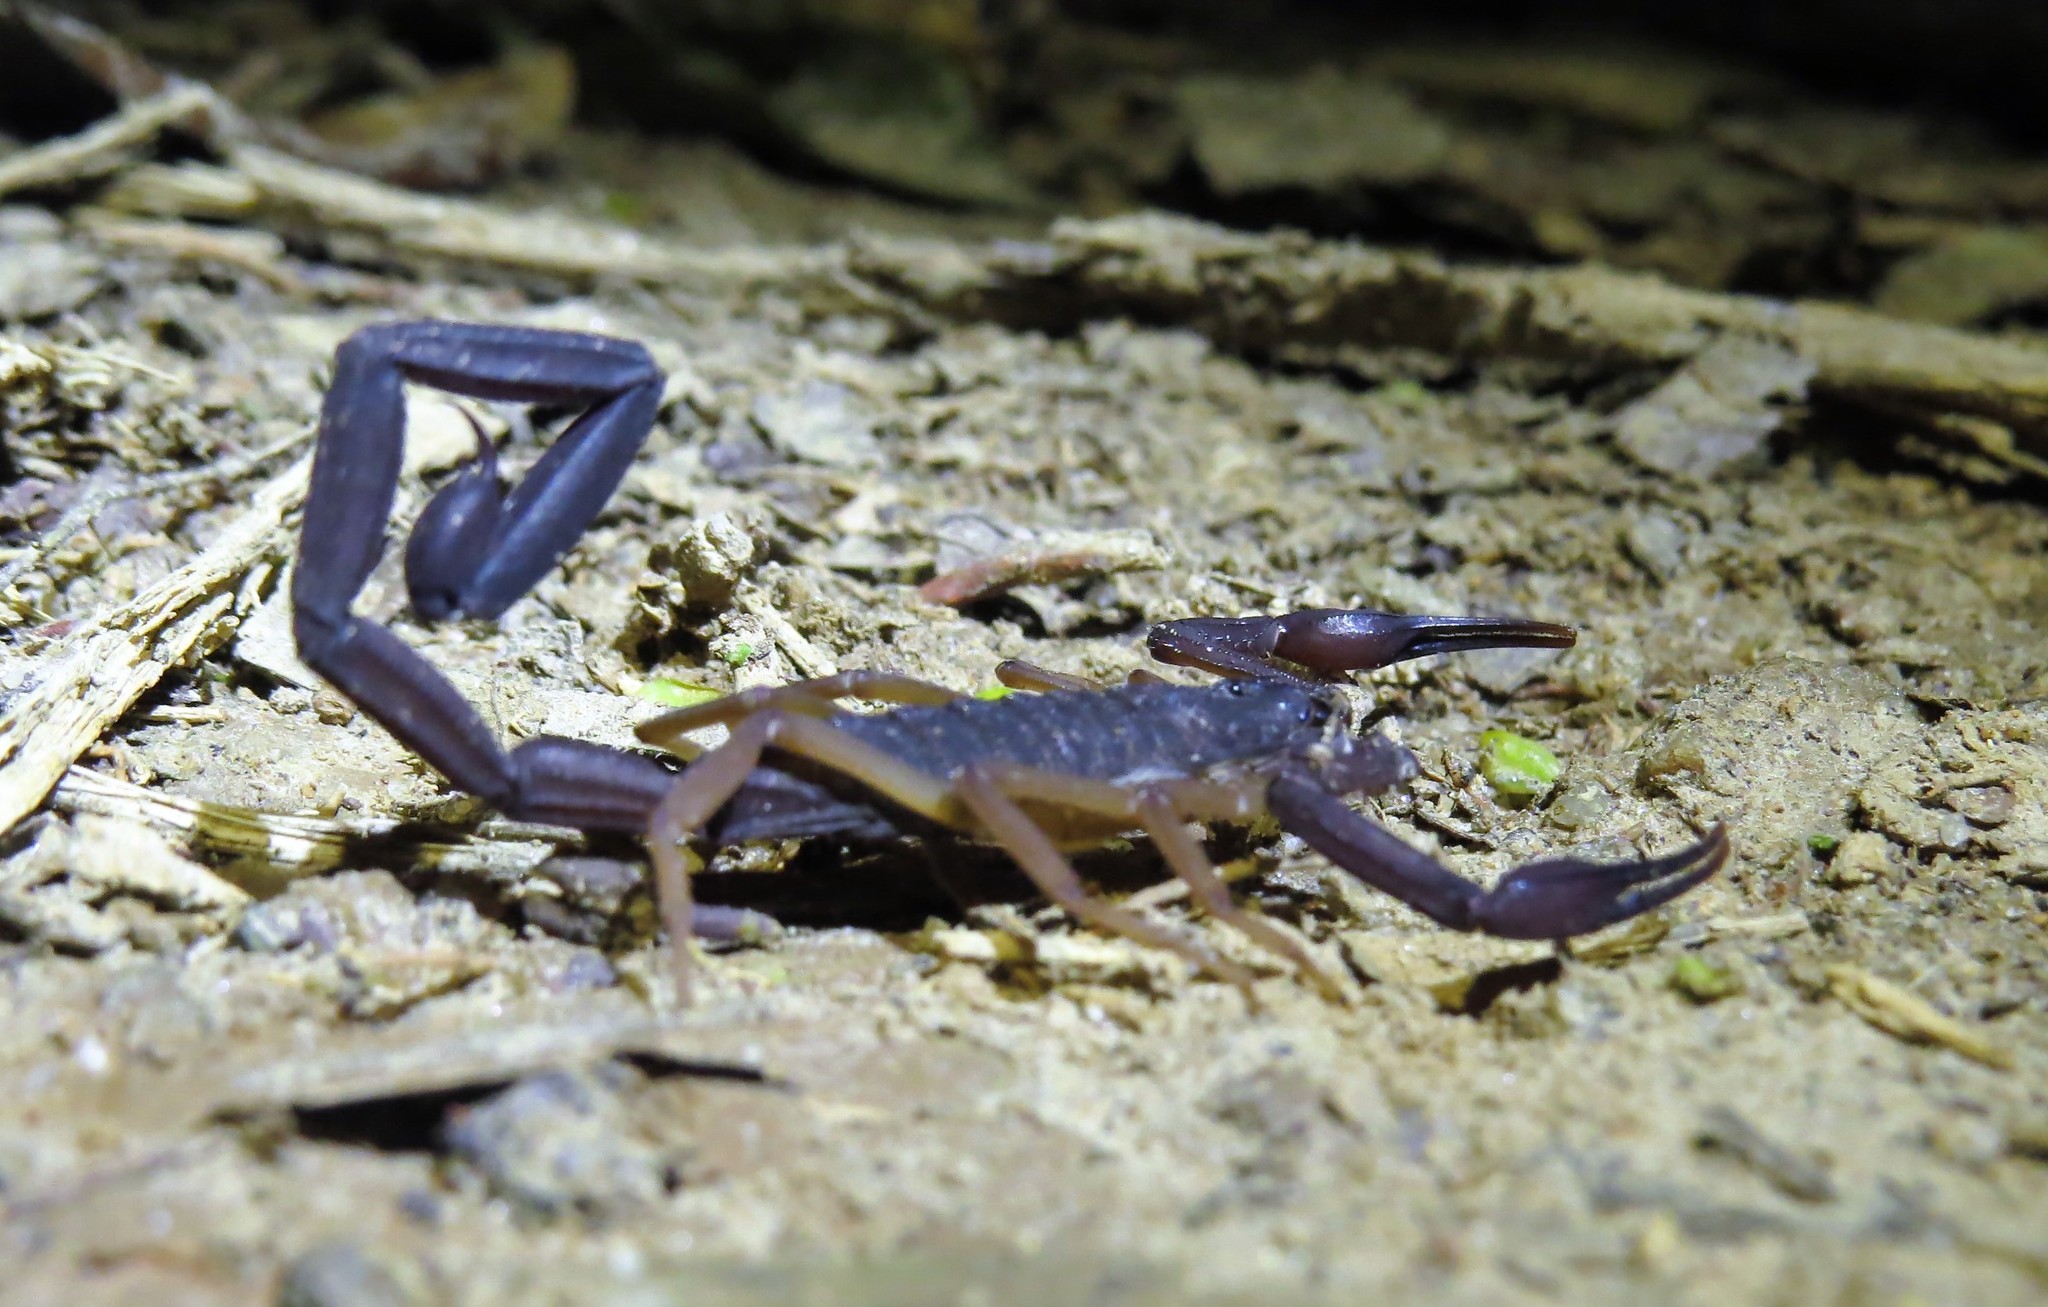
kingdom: Animalia
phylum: Arthropoda
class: Arachnida
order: Scorpiones
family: Buthidae
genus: Centruroides
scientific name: Centruroides gracilis
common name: Scorpions
